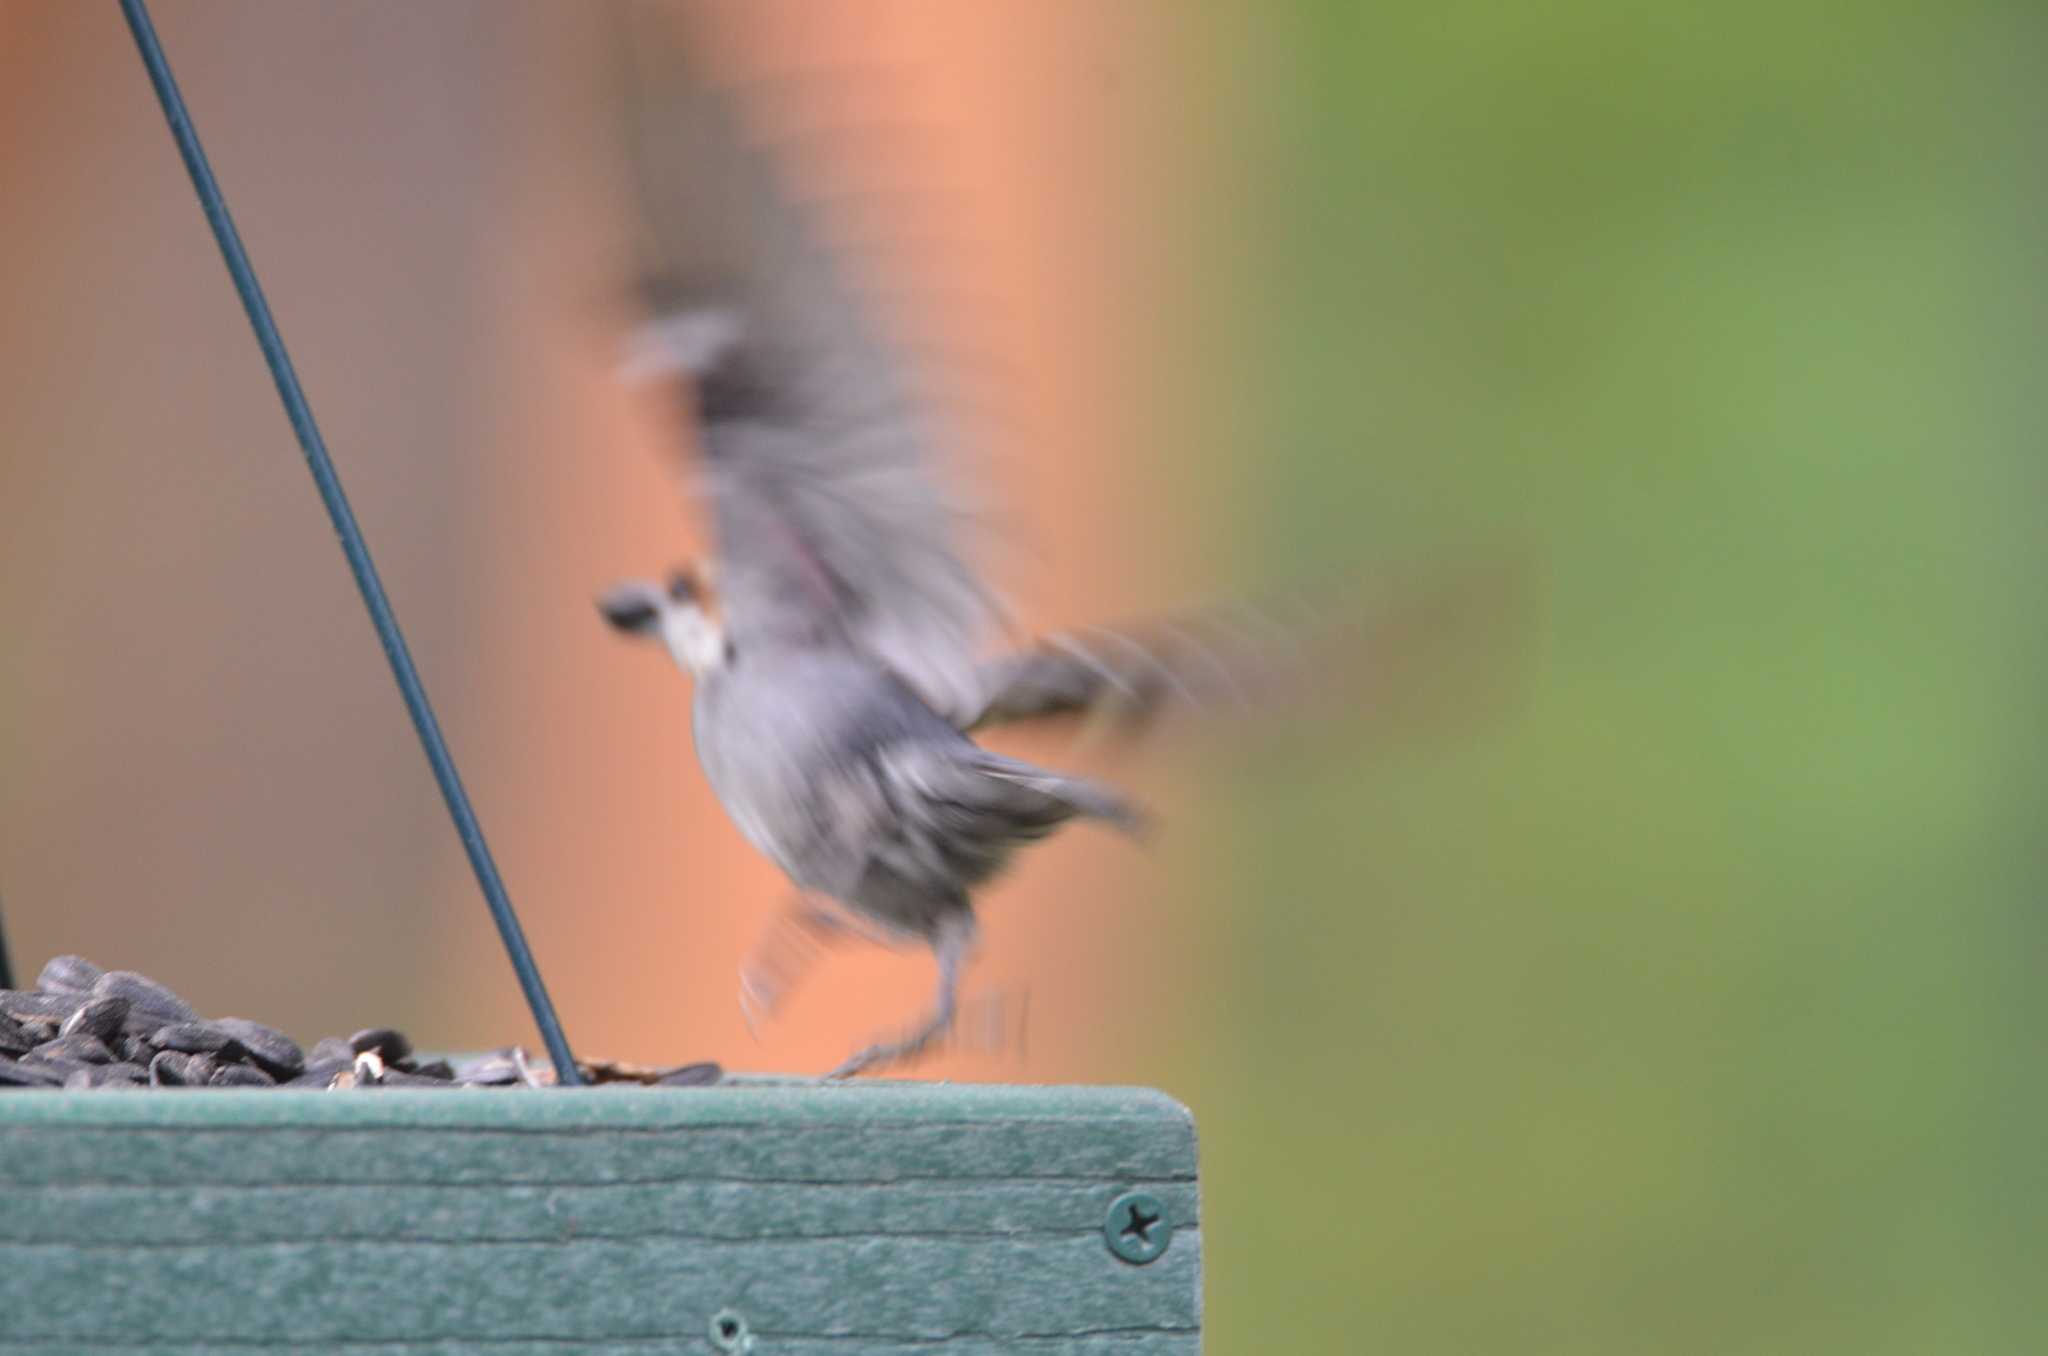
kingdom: Animalia
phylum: Chordata
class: Aves
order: Passeriformes
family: Sittidae
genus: Sitta
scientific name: Sitta pusilla
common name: Brown-headed nuthatch
